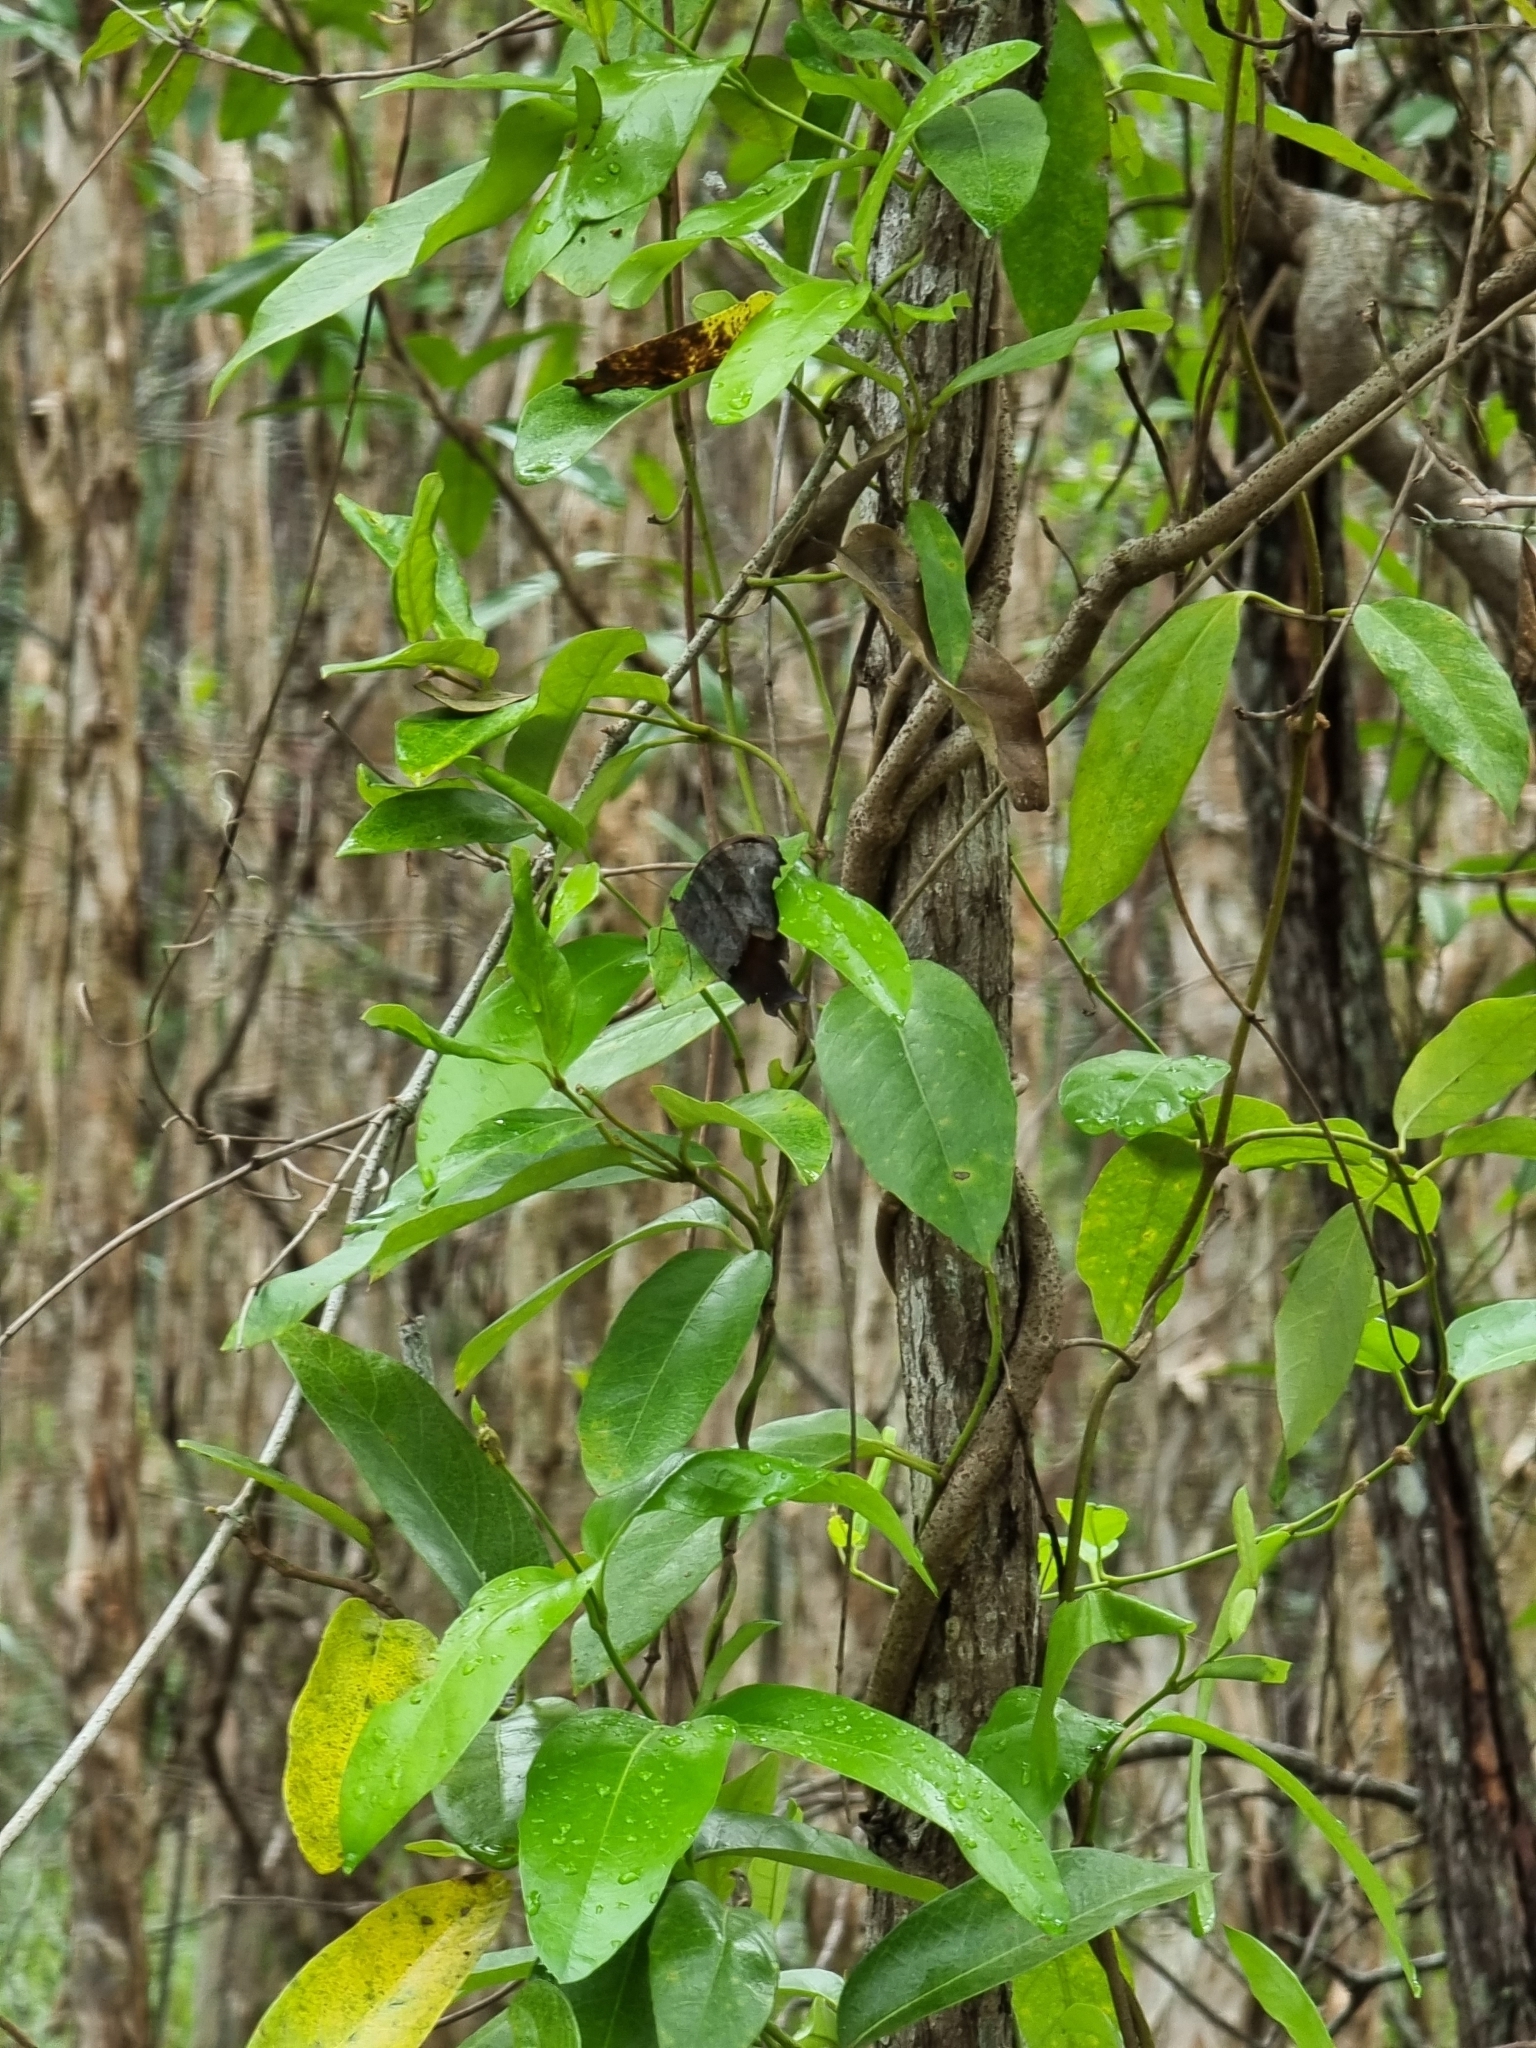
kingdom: Animalia
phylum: Arthropoda
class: Insecta
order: Lepidoptera
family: Nymphalidae
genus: Melanitis
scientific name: Melanitis leda
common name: Twilight brown
